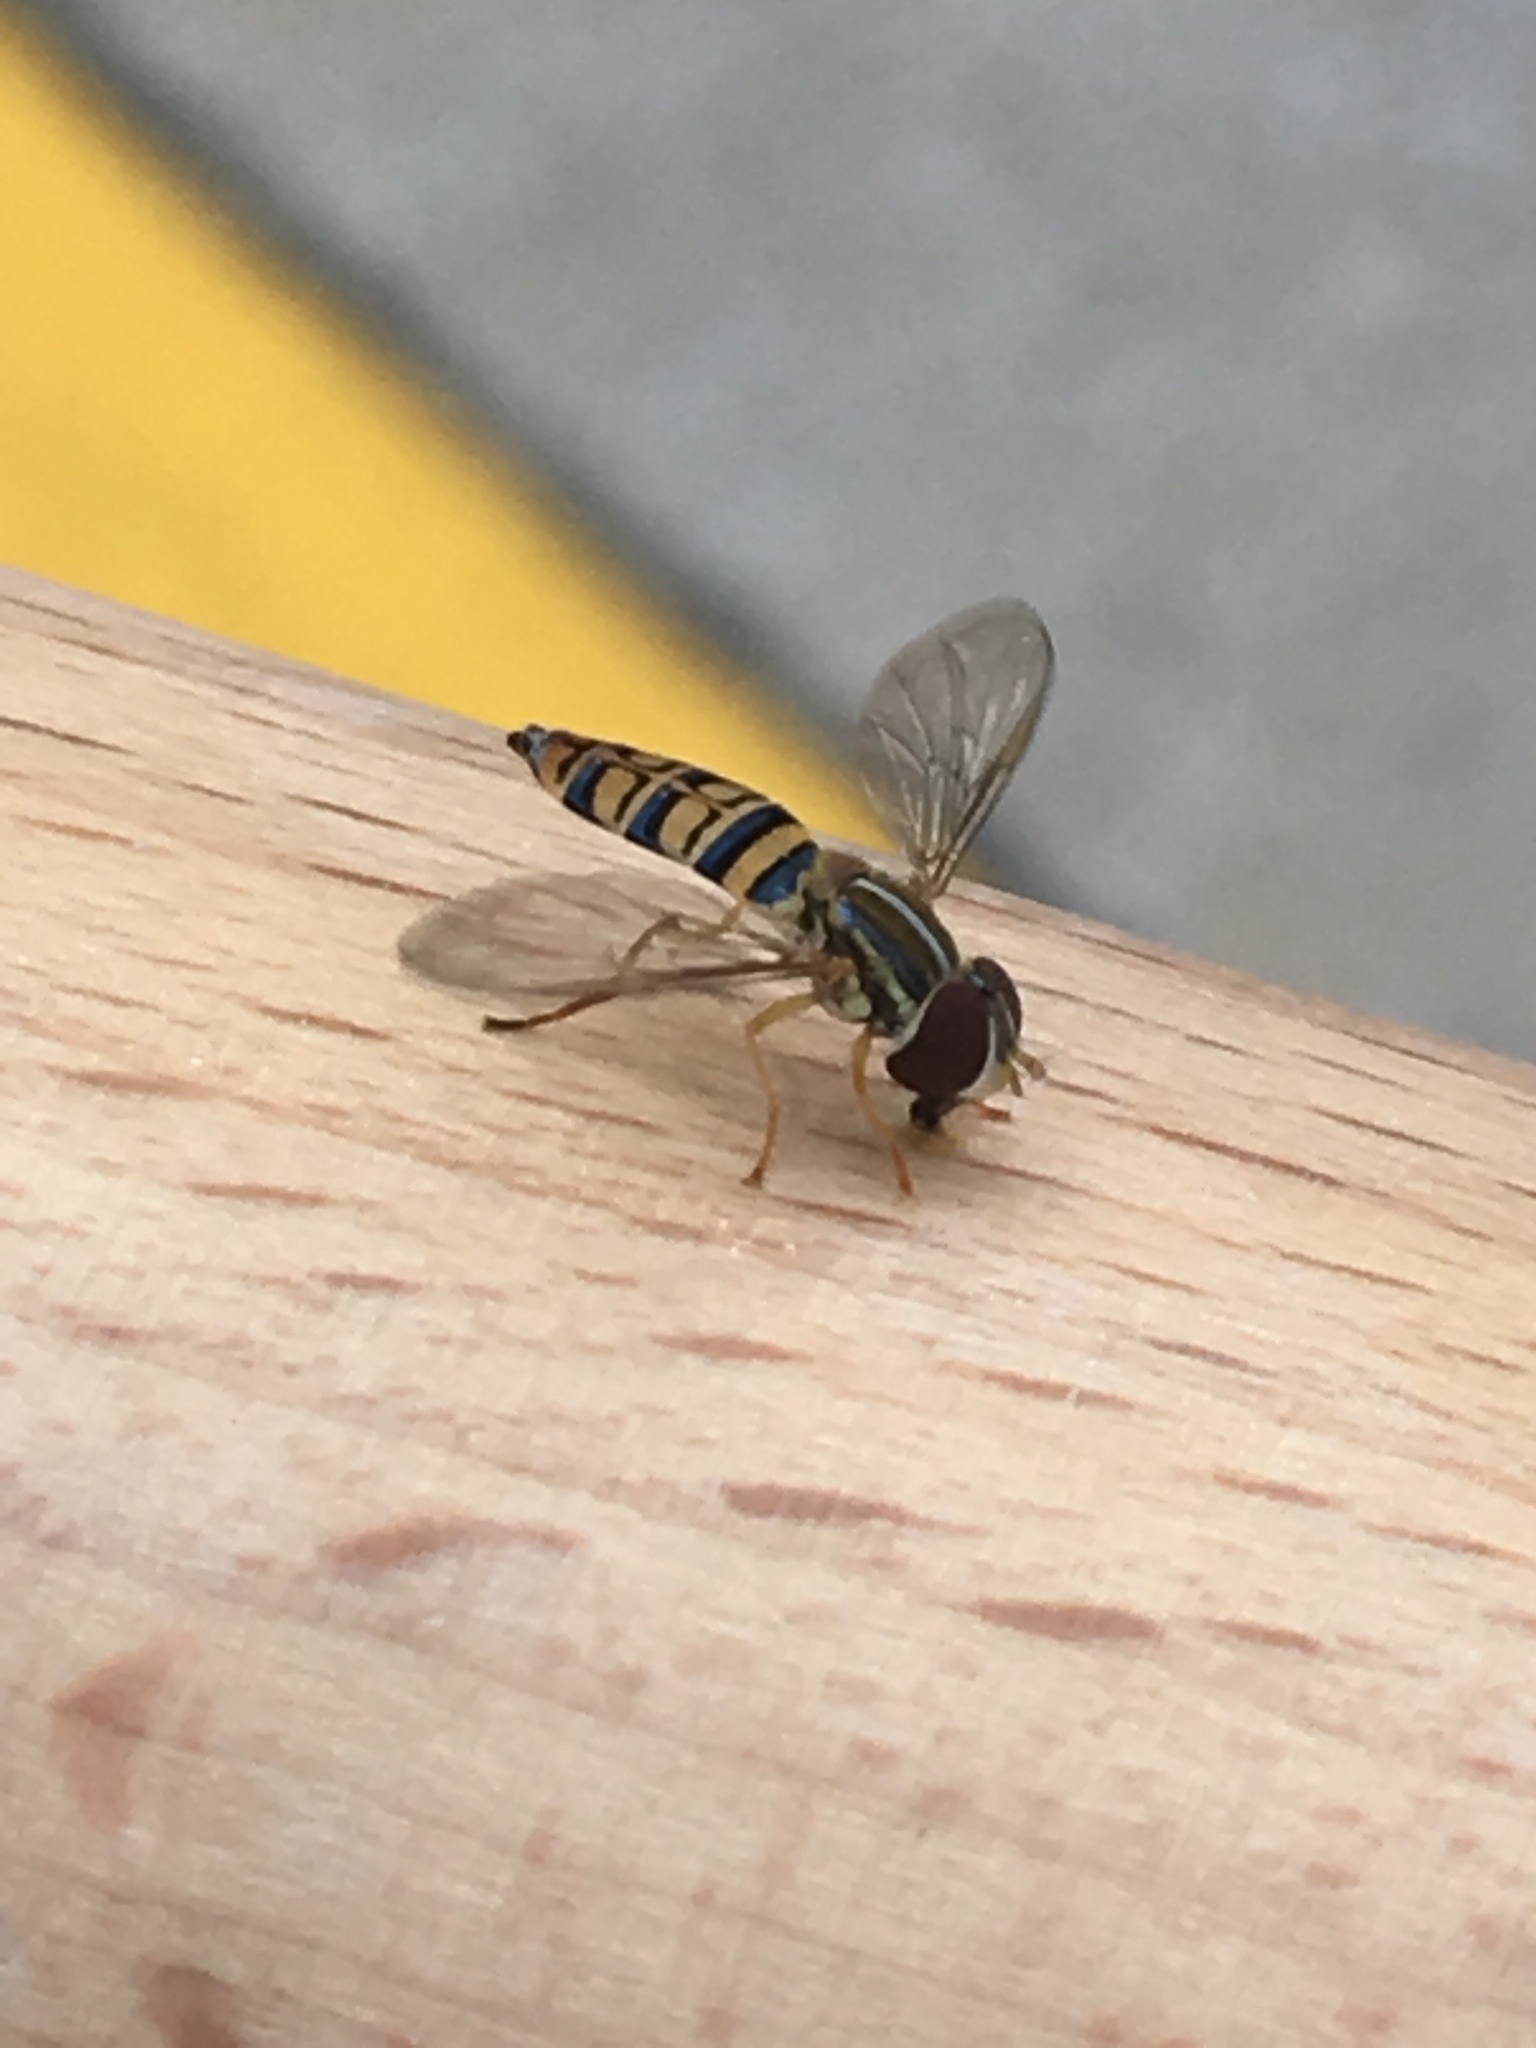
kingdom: Animalia
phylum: Arthropoda
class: Insecta
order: Diptera
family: Syrphidae
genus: Toxomerus
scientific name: Toxomerus politus
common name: Maize calligrapher
